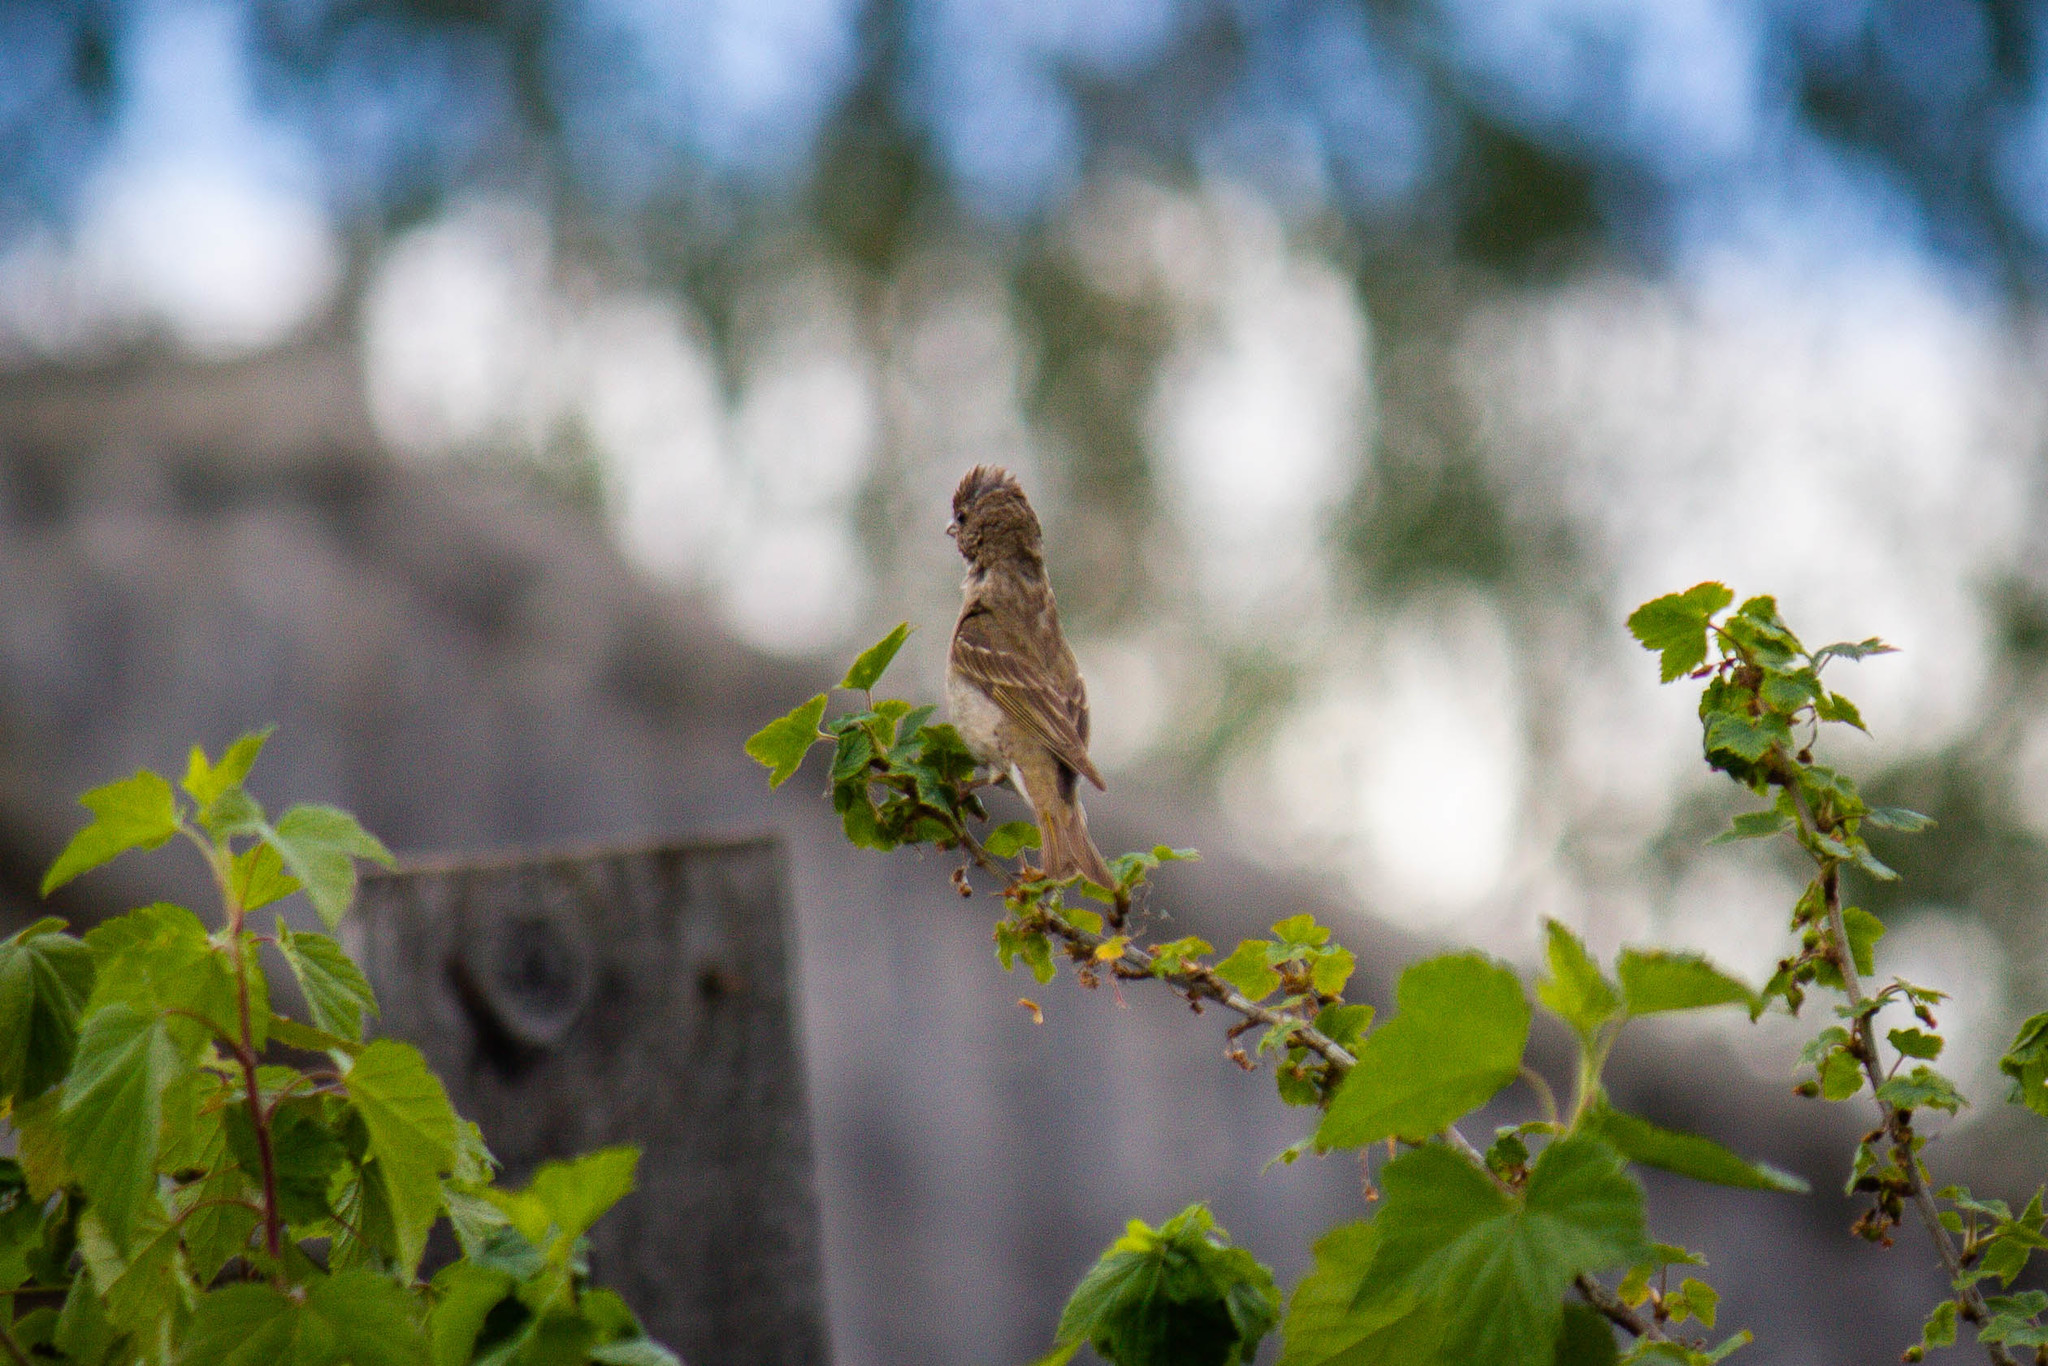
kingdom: Animalia
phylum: Chordata
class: Aves
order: Passeriformes
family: Fringillidae
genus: Carpodacus
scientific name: Carpodacus erythrinus
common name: Common rosefinch
